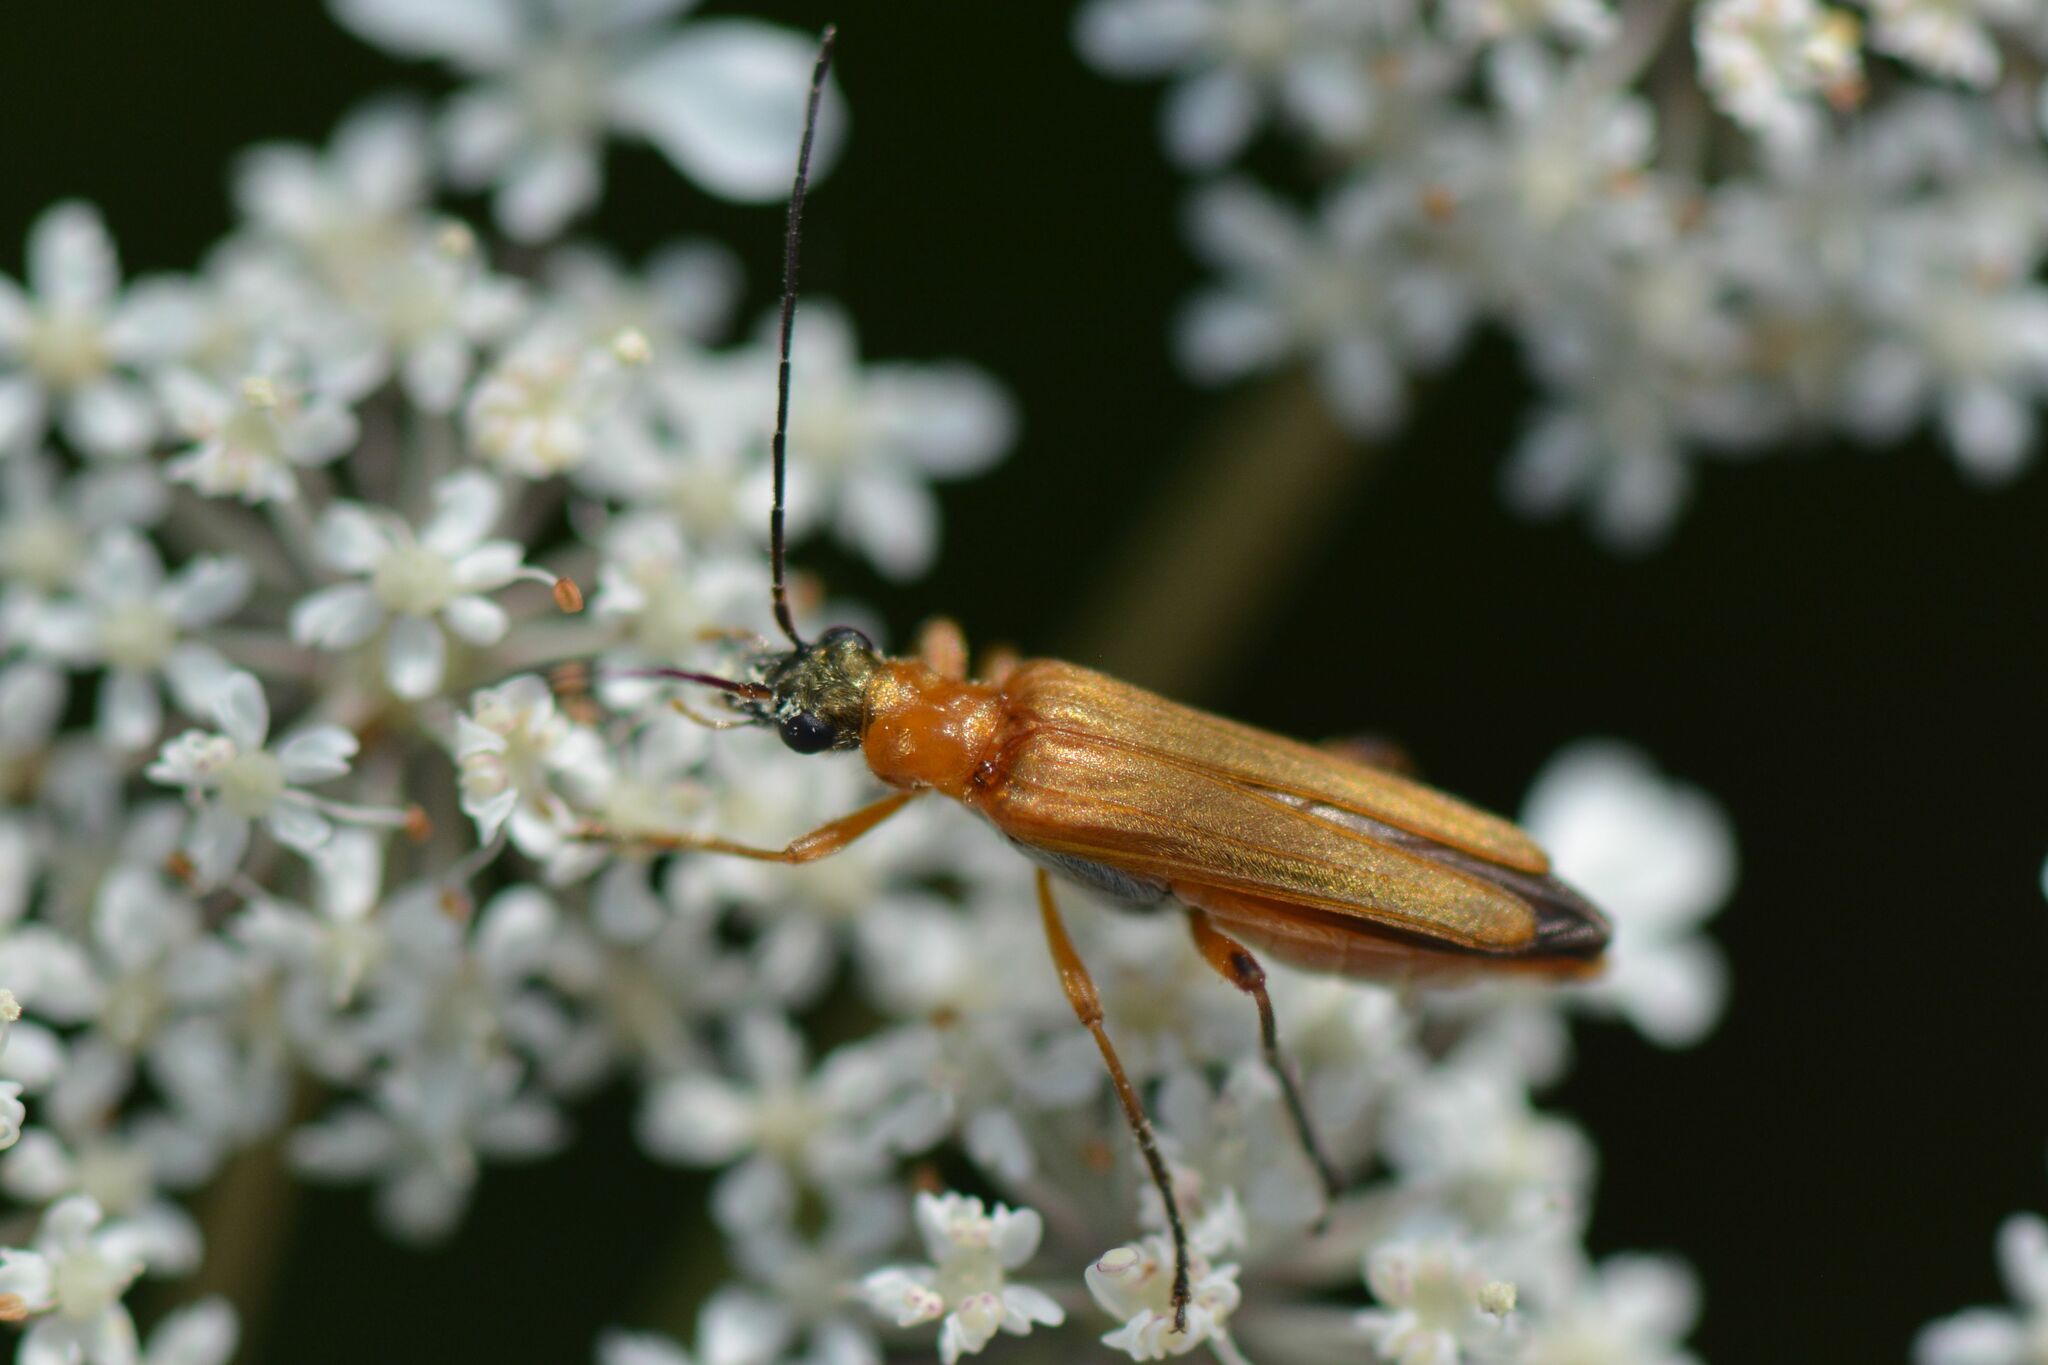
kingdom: Animalia
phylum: Arthropoda
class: Insecta
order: Coleoptera
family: Oedemeridae
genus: Oedemera
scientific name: Oedemera podagrariae
